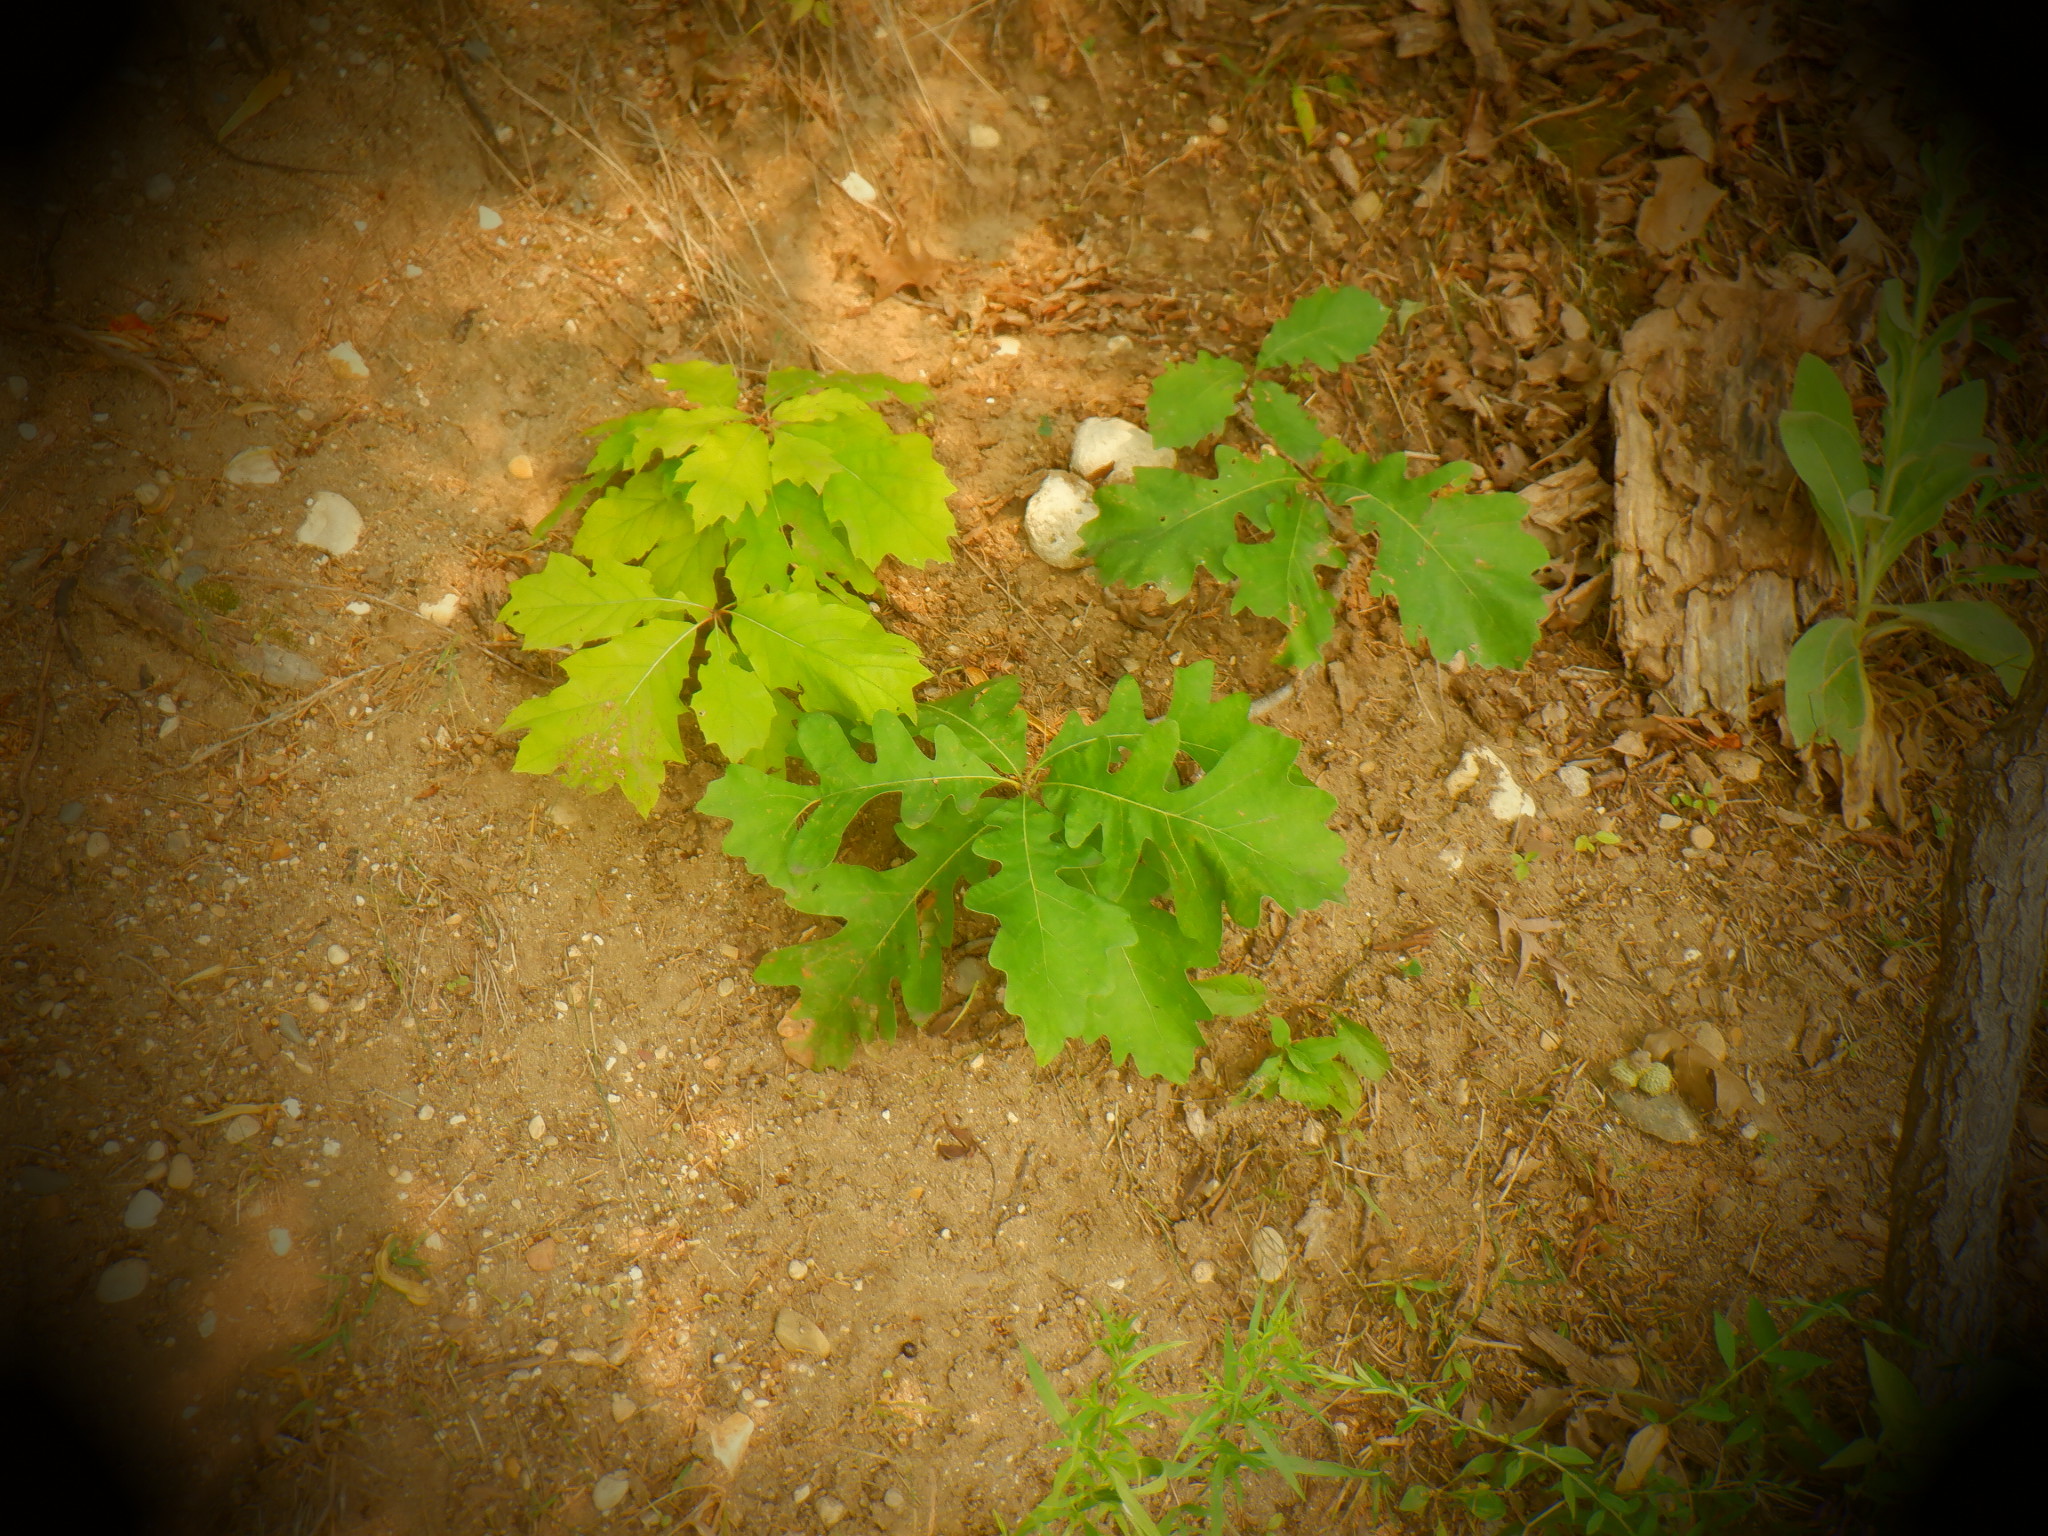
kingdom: Plantae
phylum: Tracheophyta
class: Magnoliopsida
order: Fagales
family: Fagaceae
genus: Quercus
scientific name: Quercus macrocarpa
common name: Bur oak
